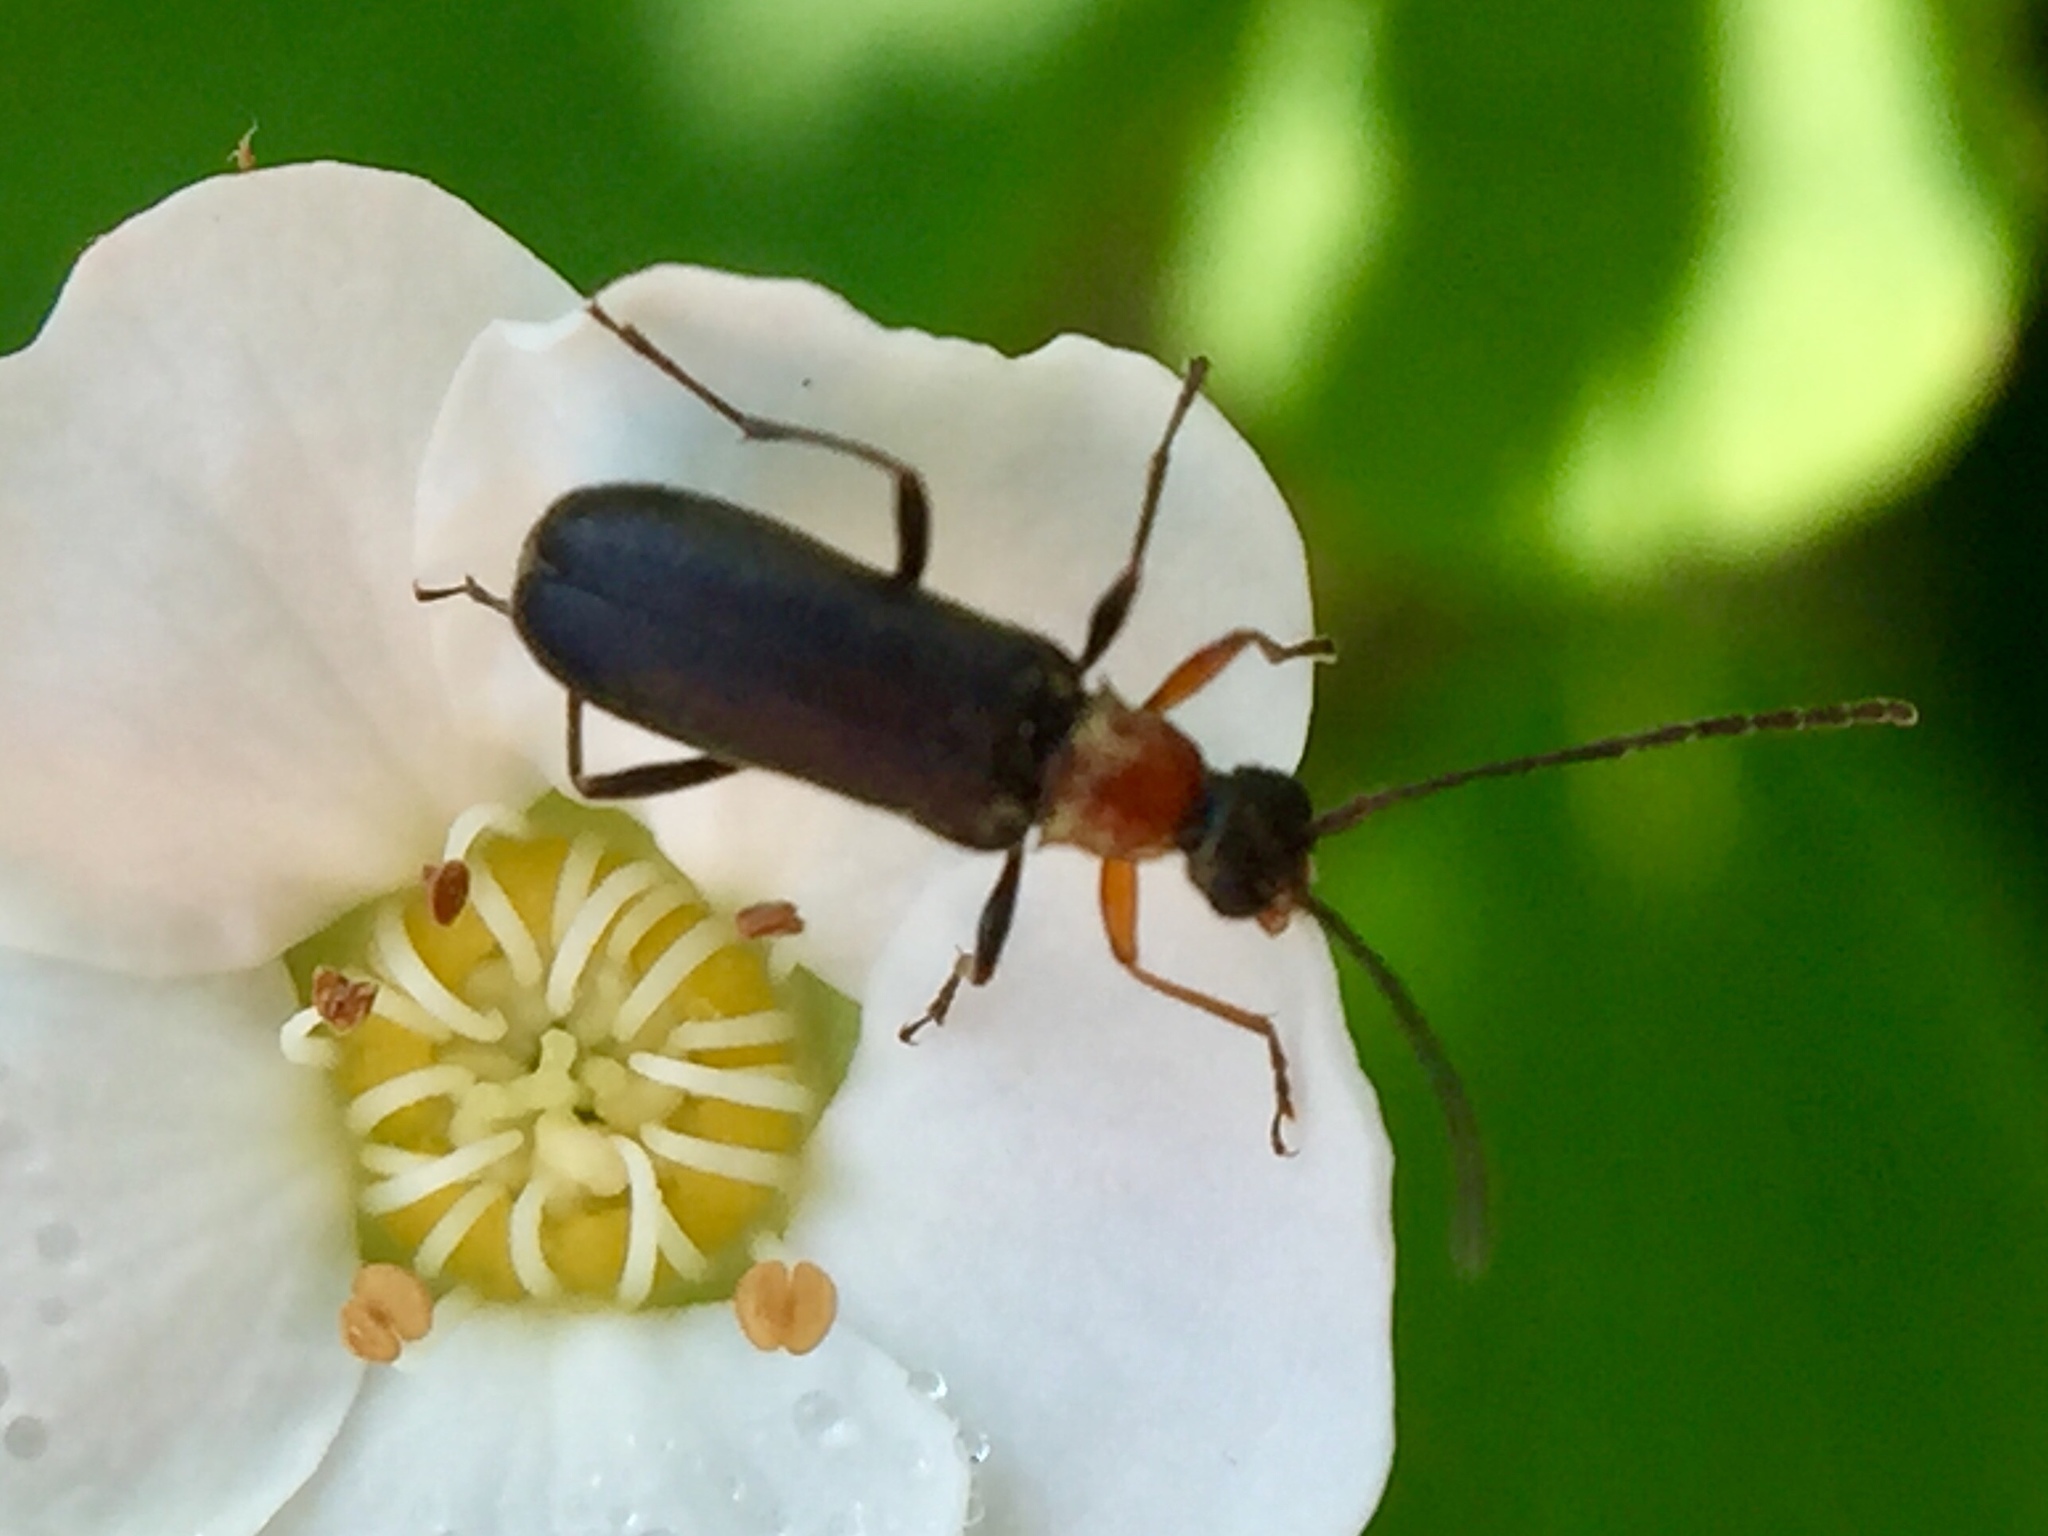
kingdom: Animalia
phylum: Arthropoda
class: Insecta
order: Coleoptera
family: Cerambycidae
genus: Grammoptera
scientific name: Grammoptera haematites
